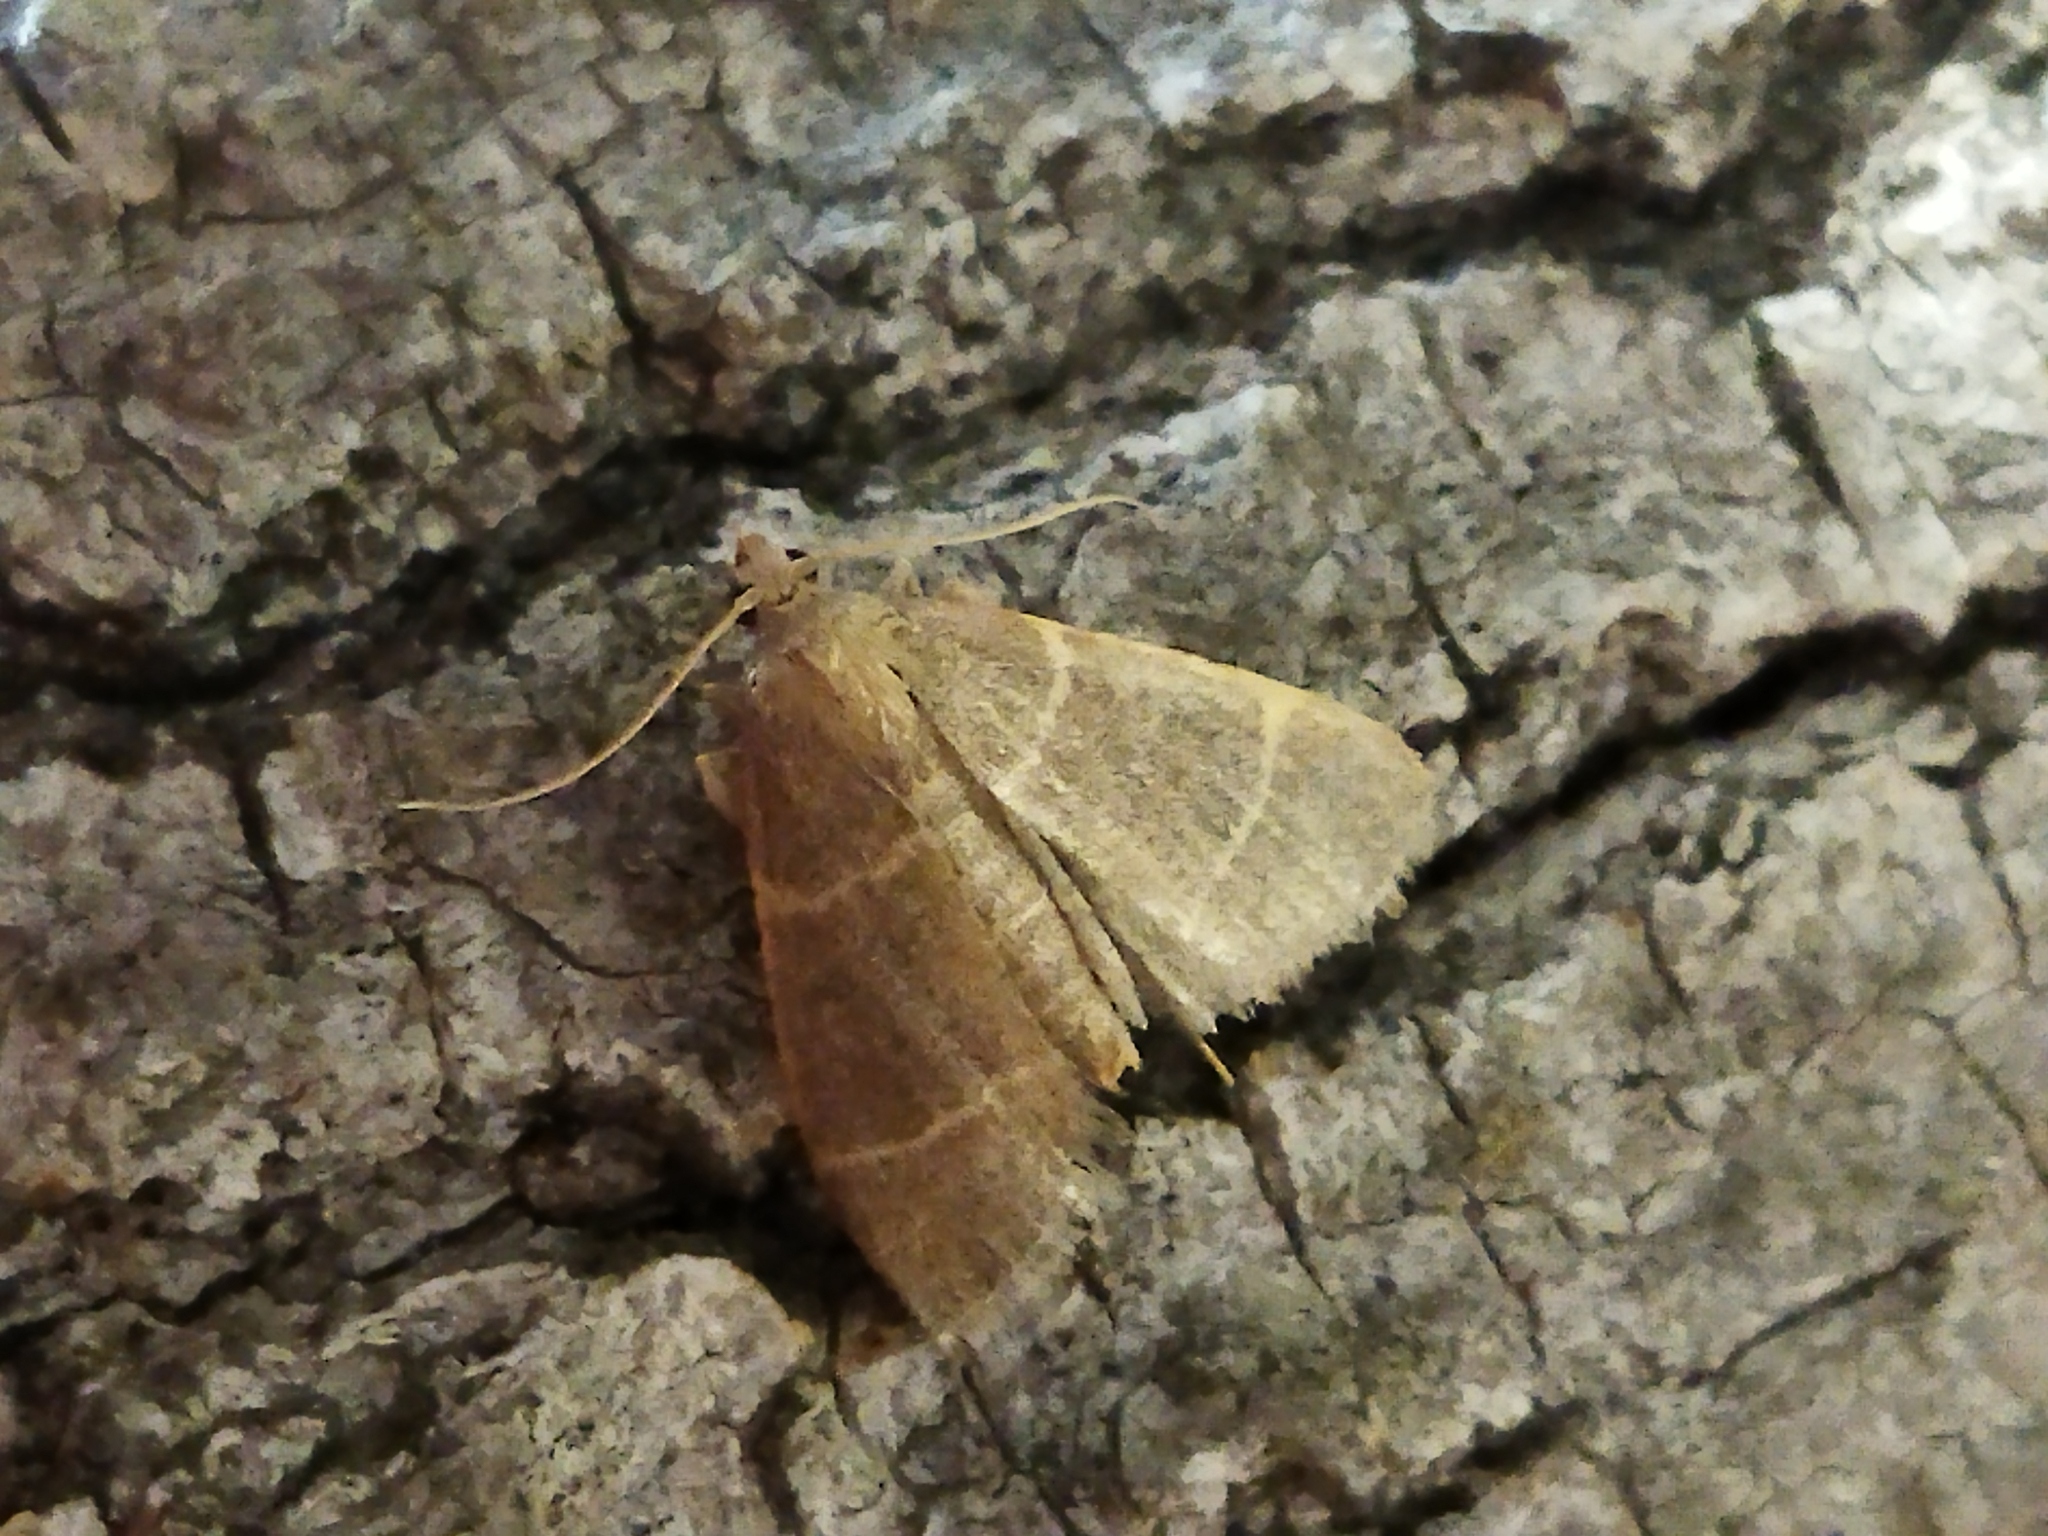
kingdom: Animalia
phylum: Arthropoda
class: Insecta
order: Lepidoptera
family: Pyralidae
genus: Hypsopygia
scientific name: Hypsopygia glaucinalis
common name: Double-striped tabby
